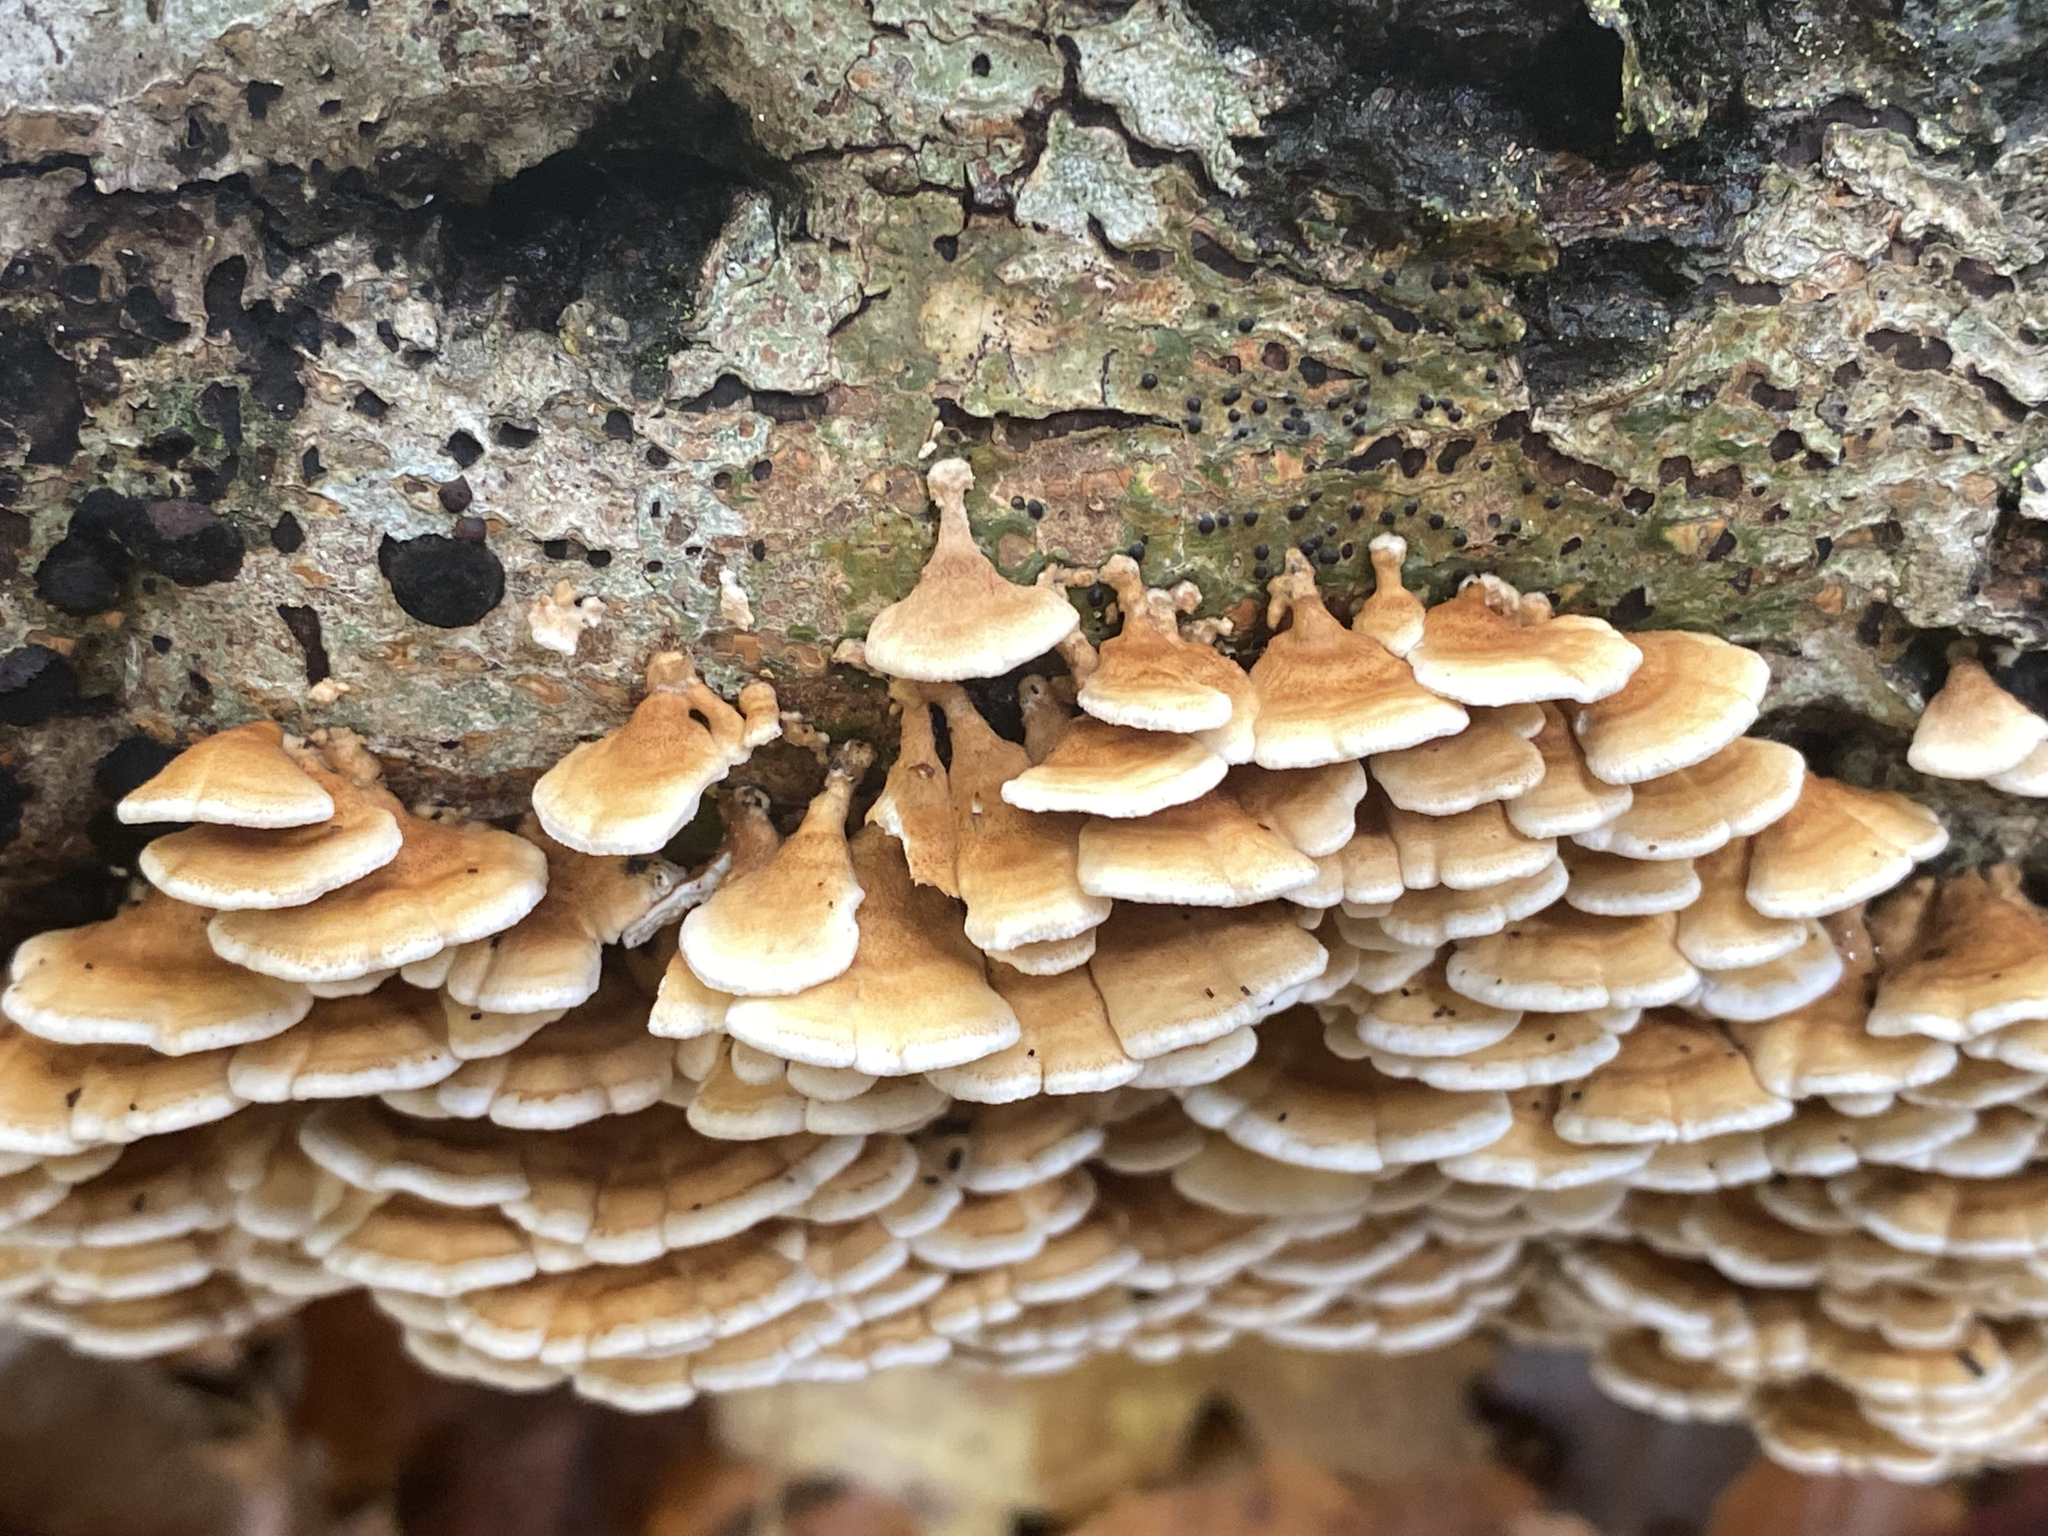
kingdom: Fungi
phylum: Basidiomycota
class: Agaricomycetes
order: Amylocorticiales
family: Amylocorticiaceae
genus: Plicaturopsis
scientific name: Plicaturopsis crispa
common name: Crimped gill
